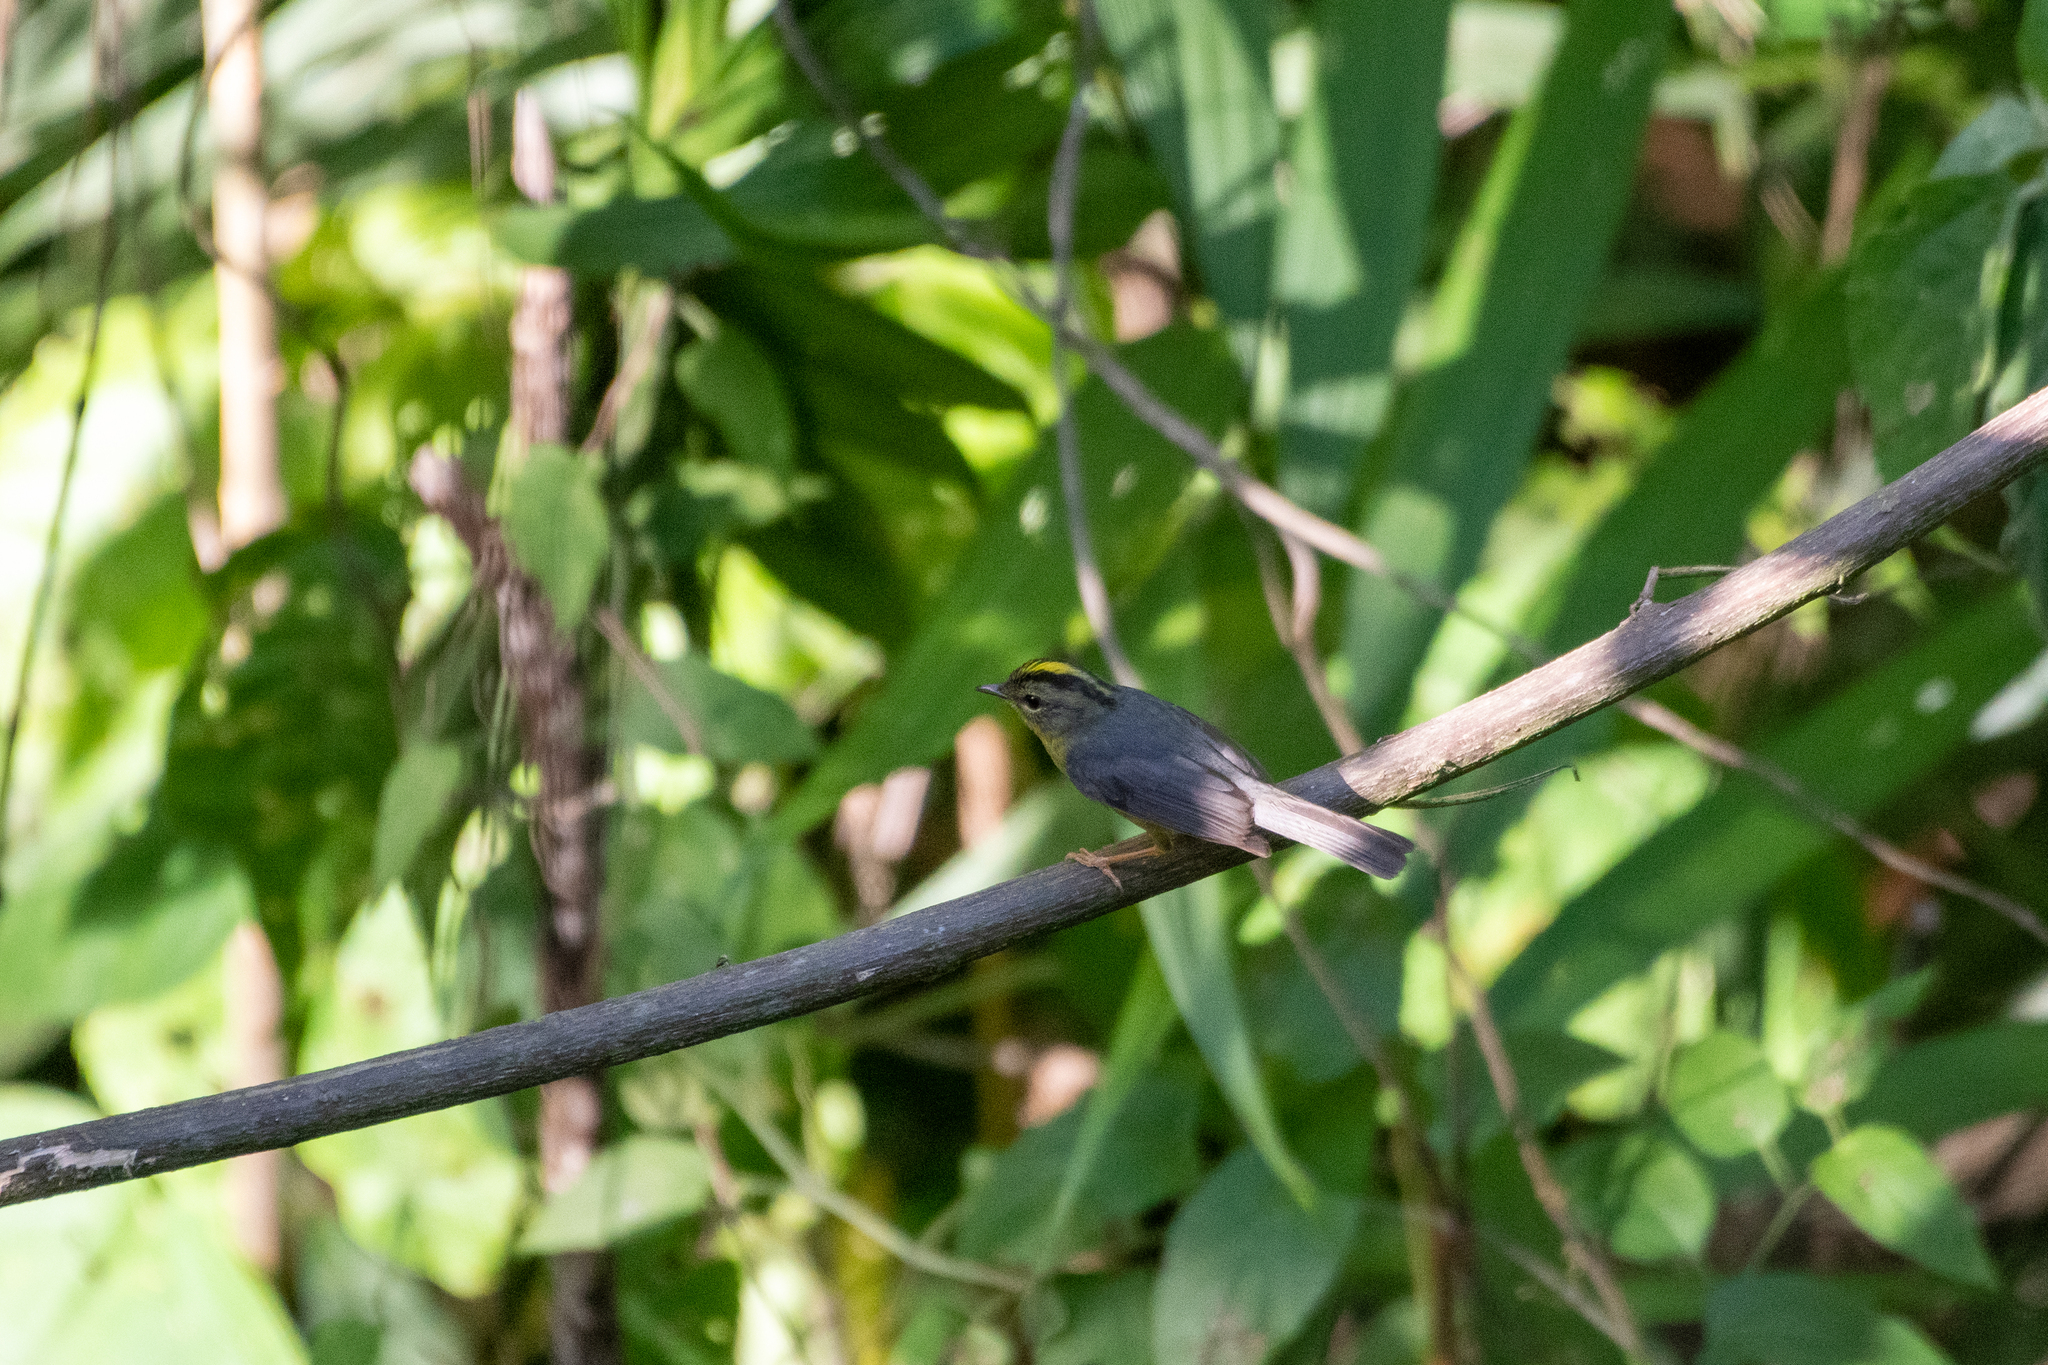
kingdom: Animalia
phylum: Chordata
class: Aves
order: Passeriformes
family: Parulidae
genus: Basileuterus
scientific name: Basileuterus culicivorus
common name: Golden-crowned warbler
